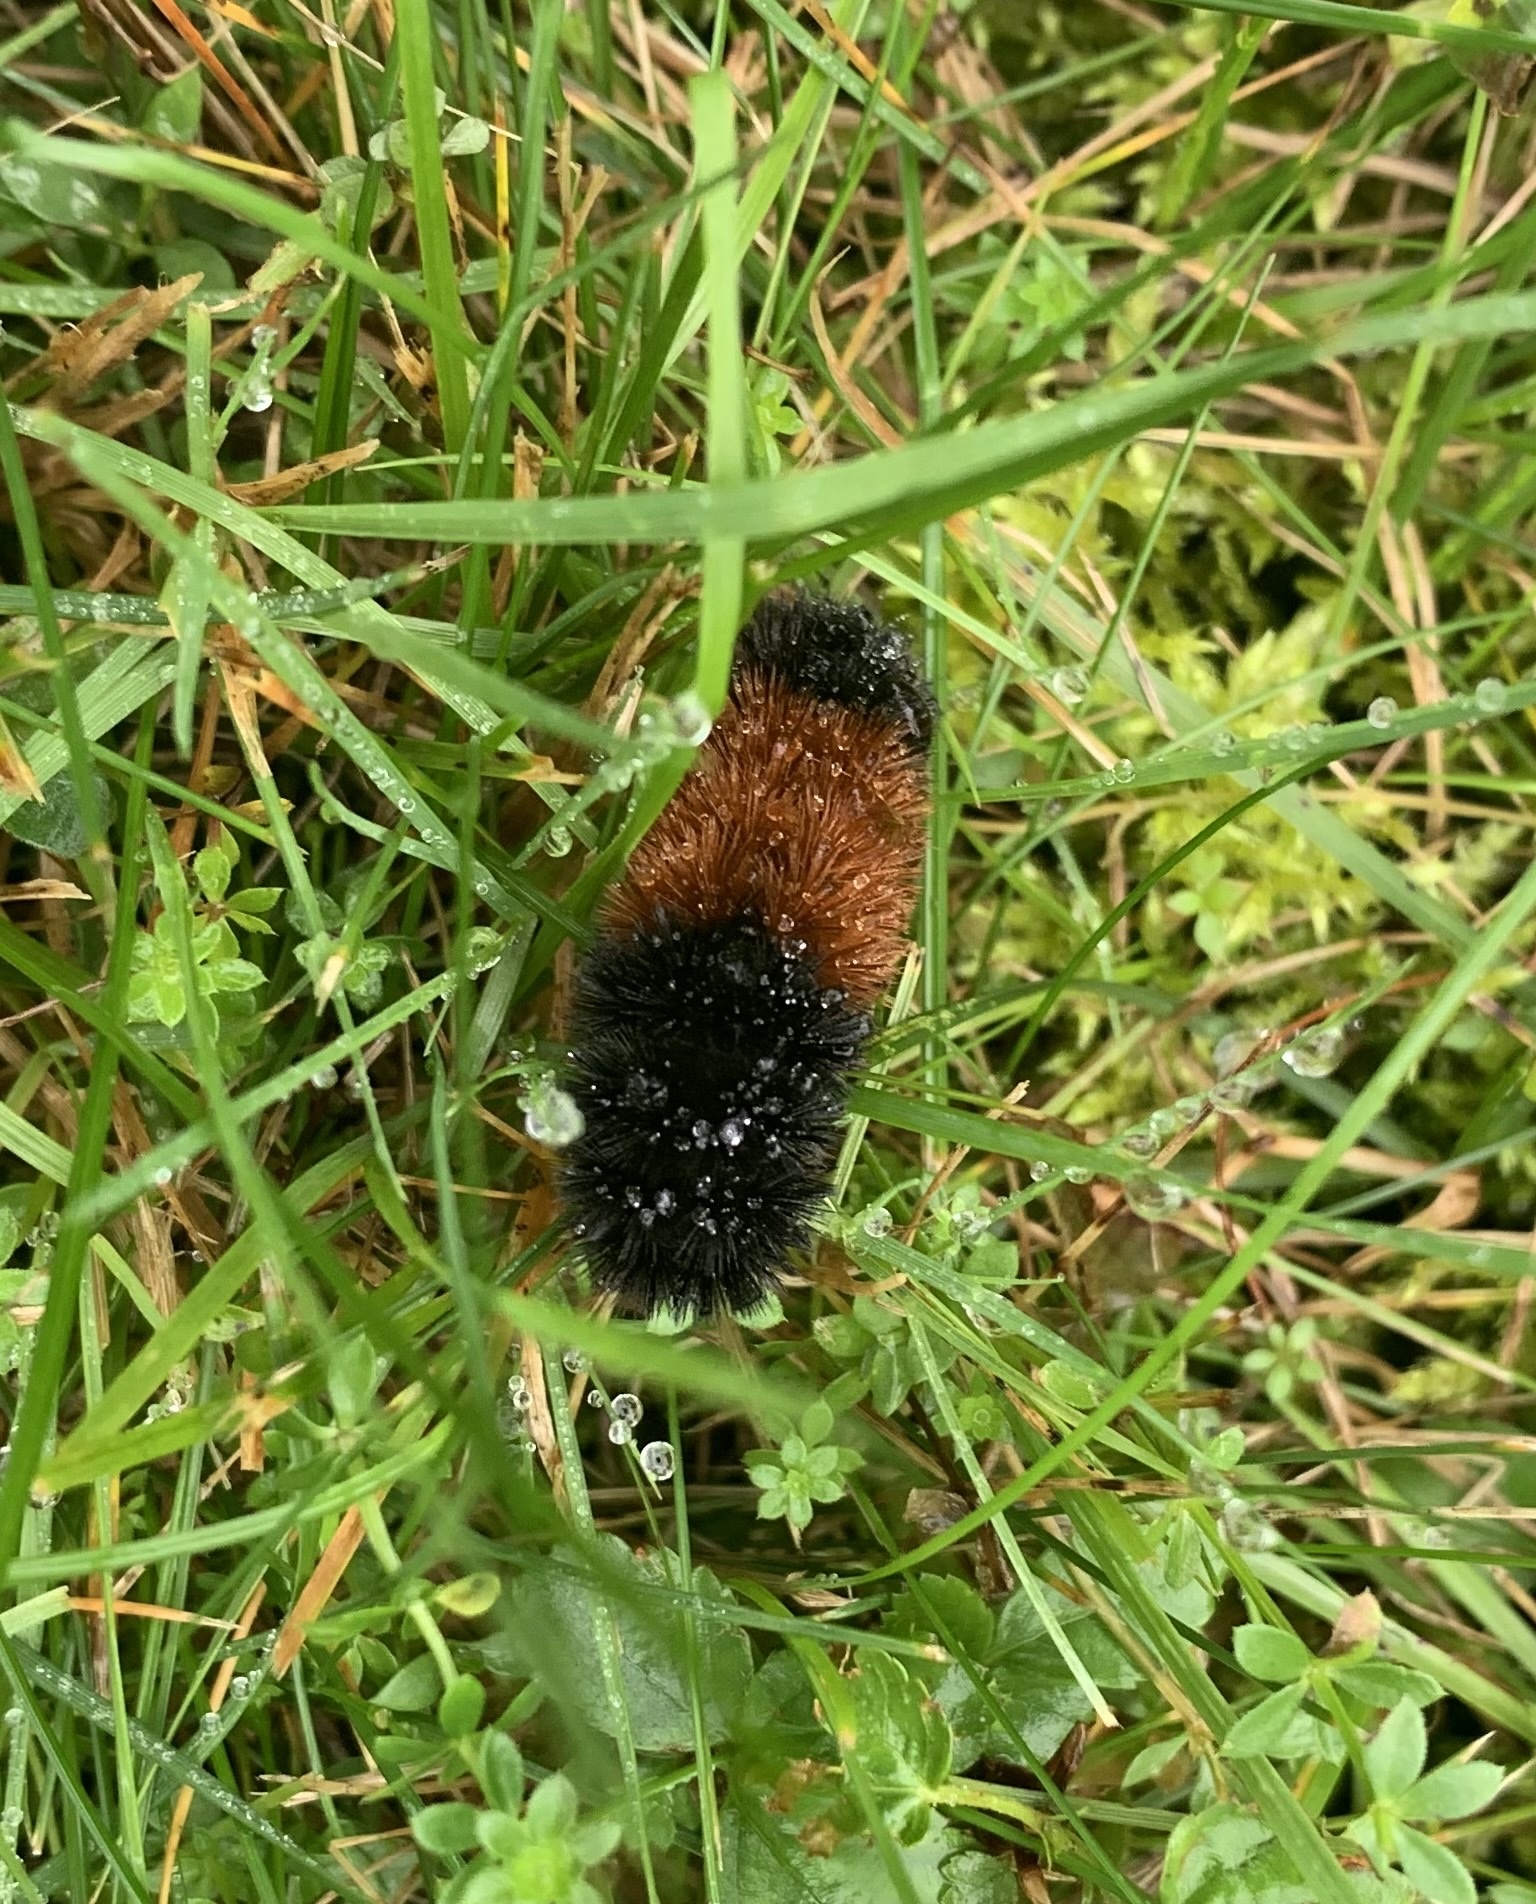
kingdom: Animalia
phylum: Arthropoda
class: Insecta
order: Lepidoptera
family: Erebidae
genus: Pyrrharctia
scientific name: Pyrrharctia isabella
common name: Isabella tiger moth
